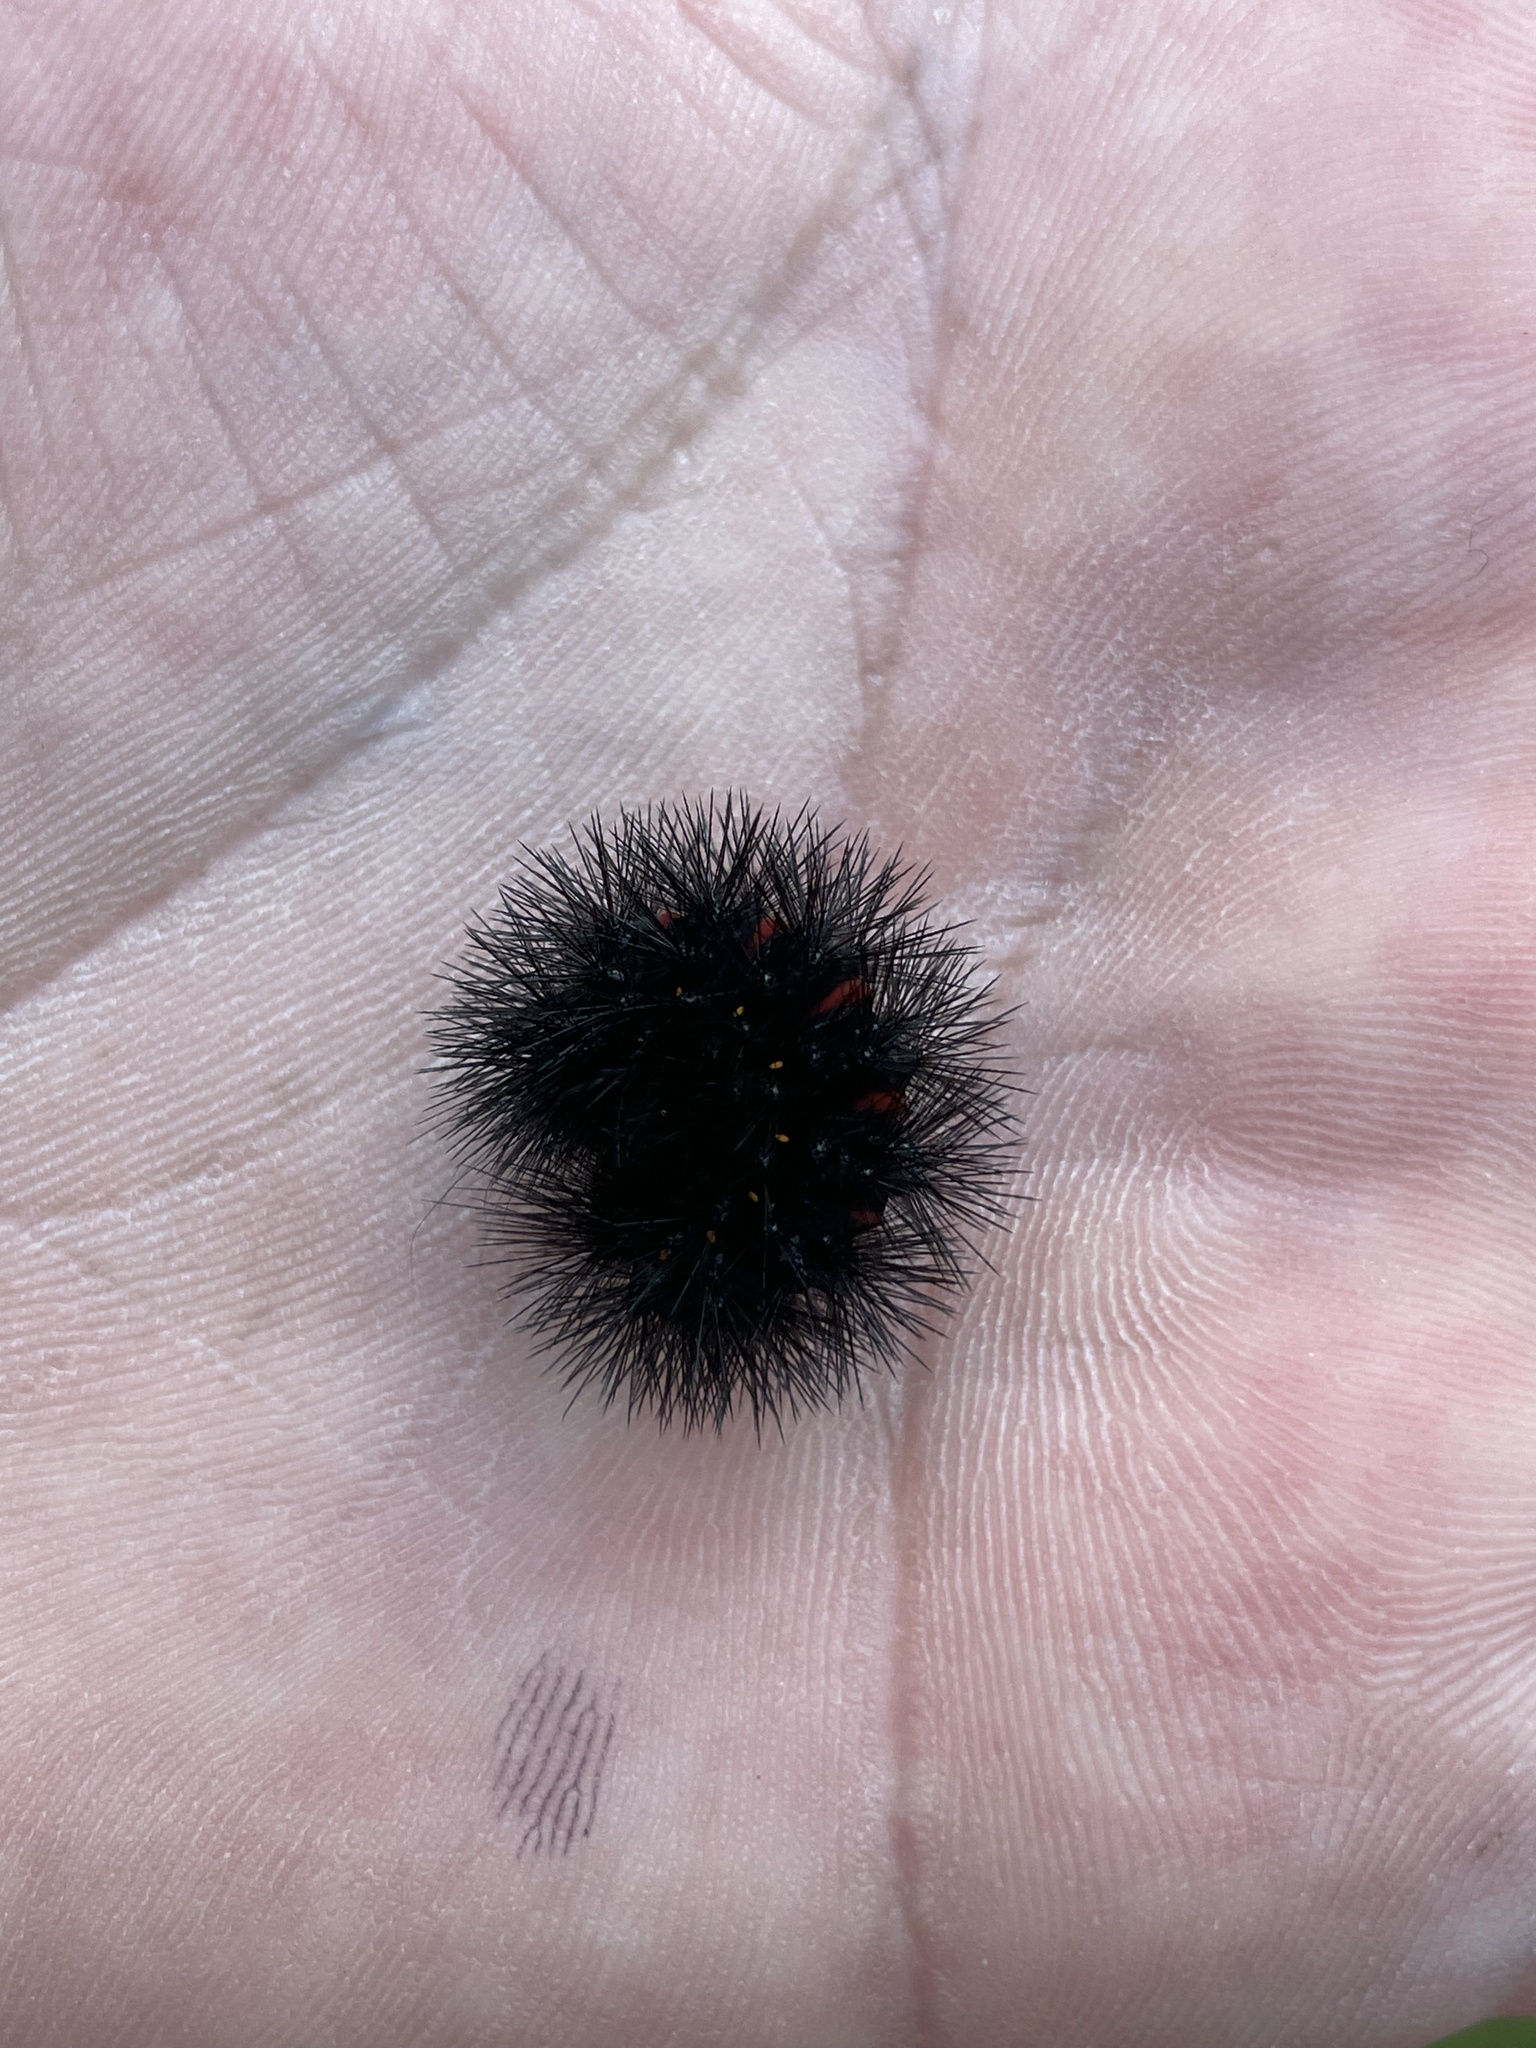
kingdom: Animalia
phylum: Arthropoda
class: Insecta
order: Lepidoptera
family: Erebidae
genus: Hypercompe
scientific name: Hypercompe scribonia
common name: Giant leopard moth
